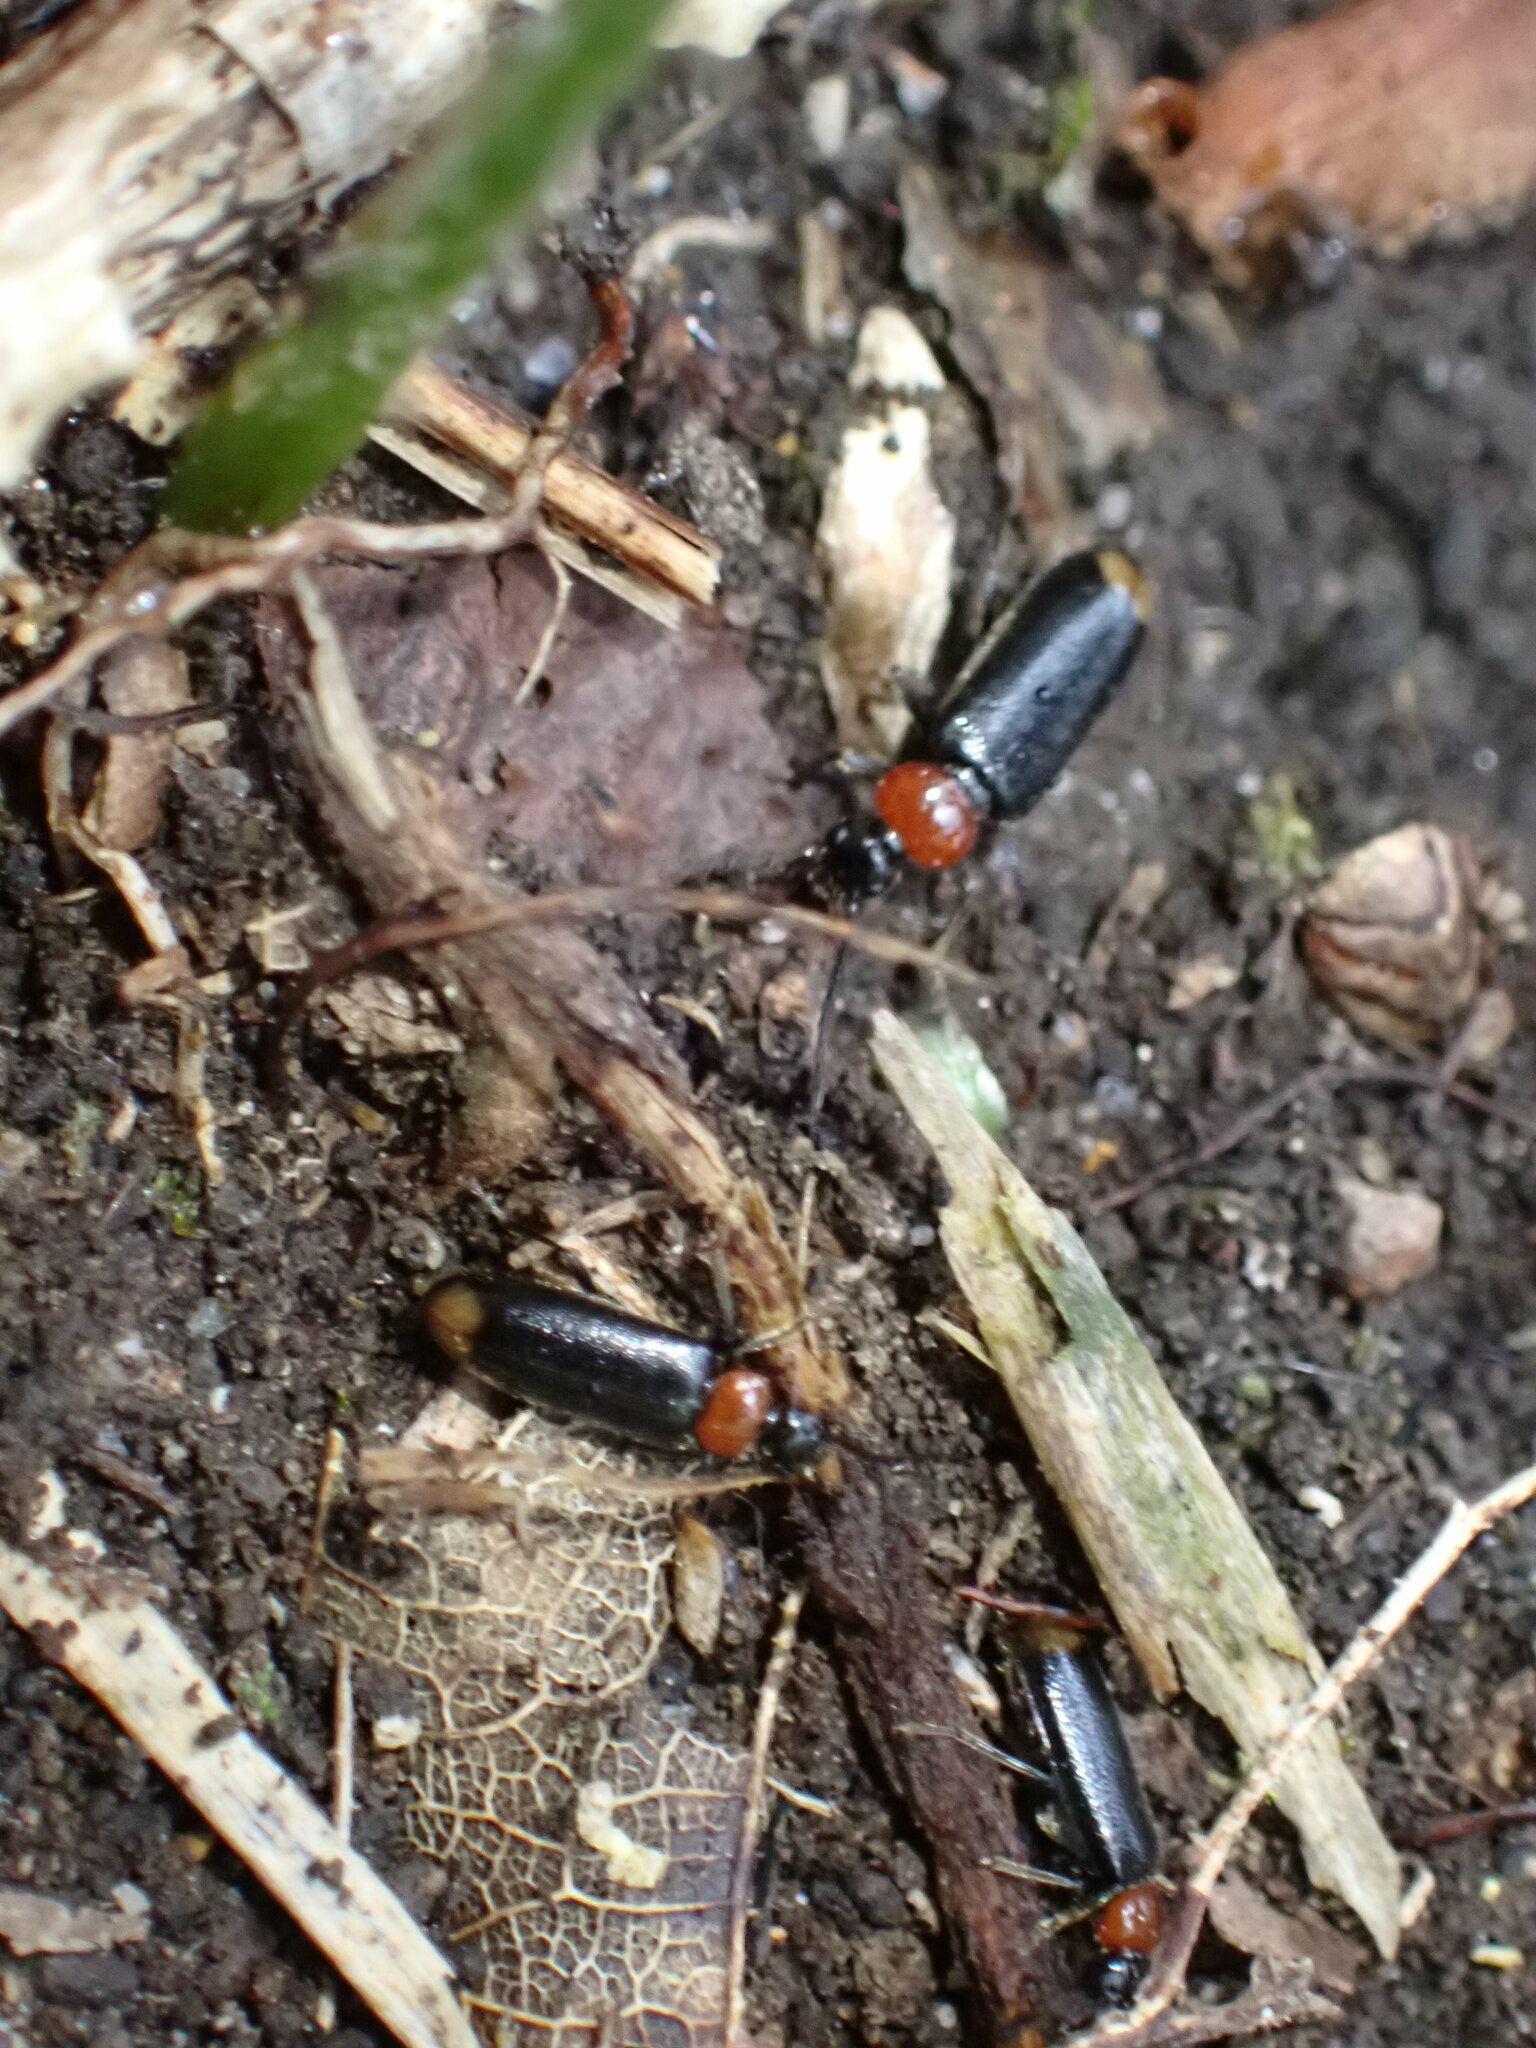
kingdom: Animalia
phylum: Arthropoda
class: Insecta
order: Coleoptera
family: Pyrochroidae
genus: Pedilus
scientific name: Pedilus terminalis
